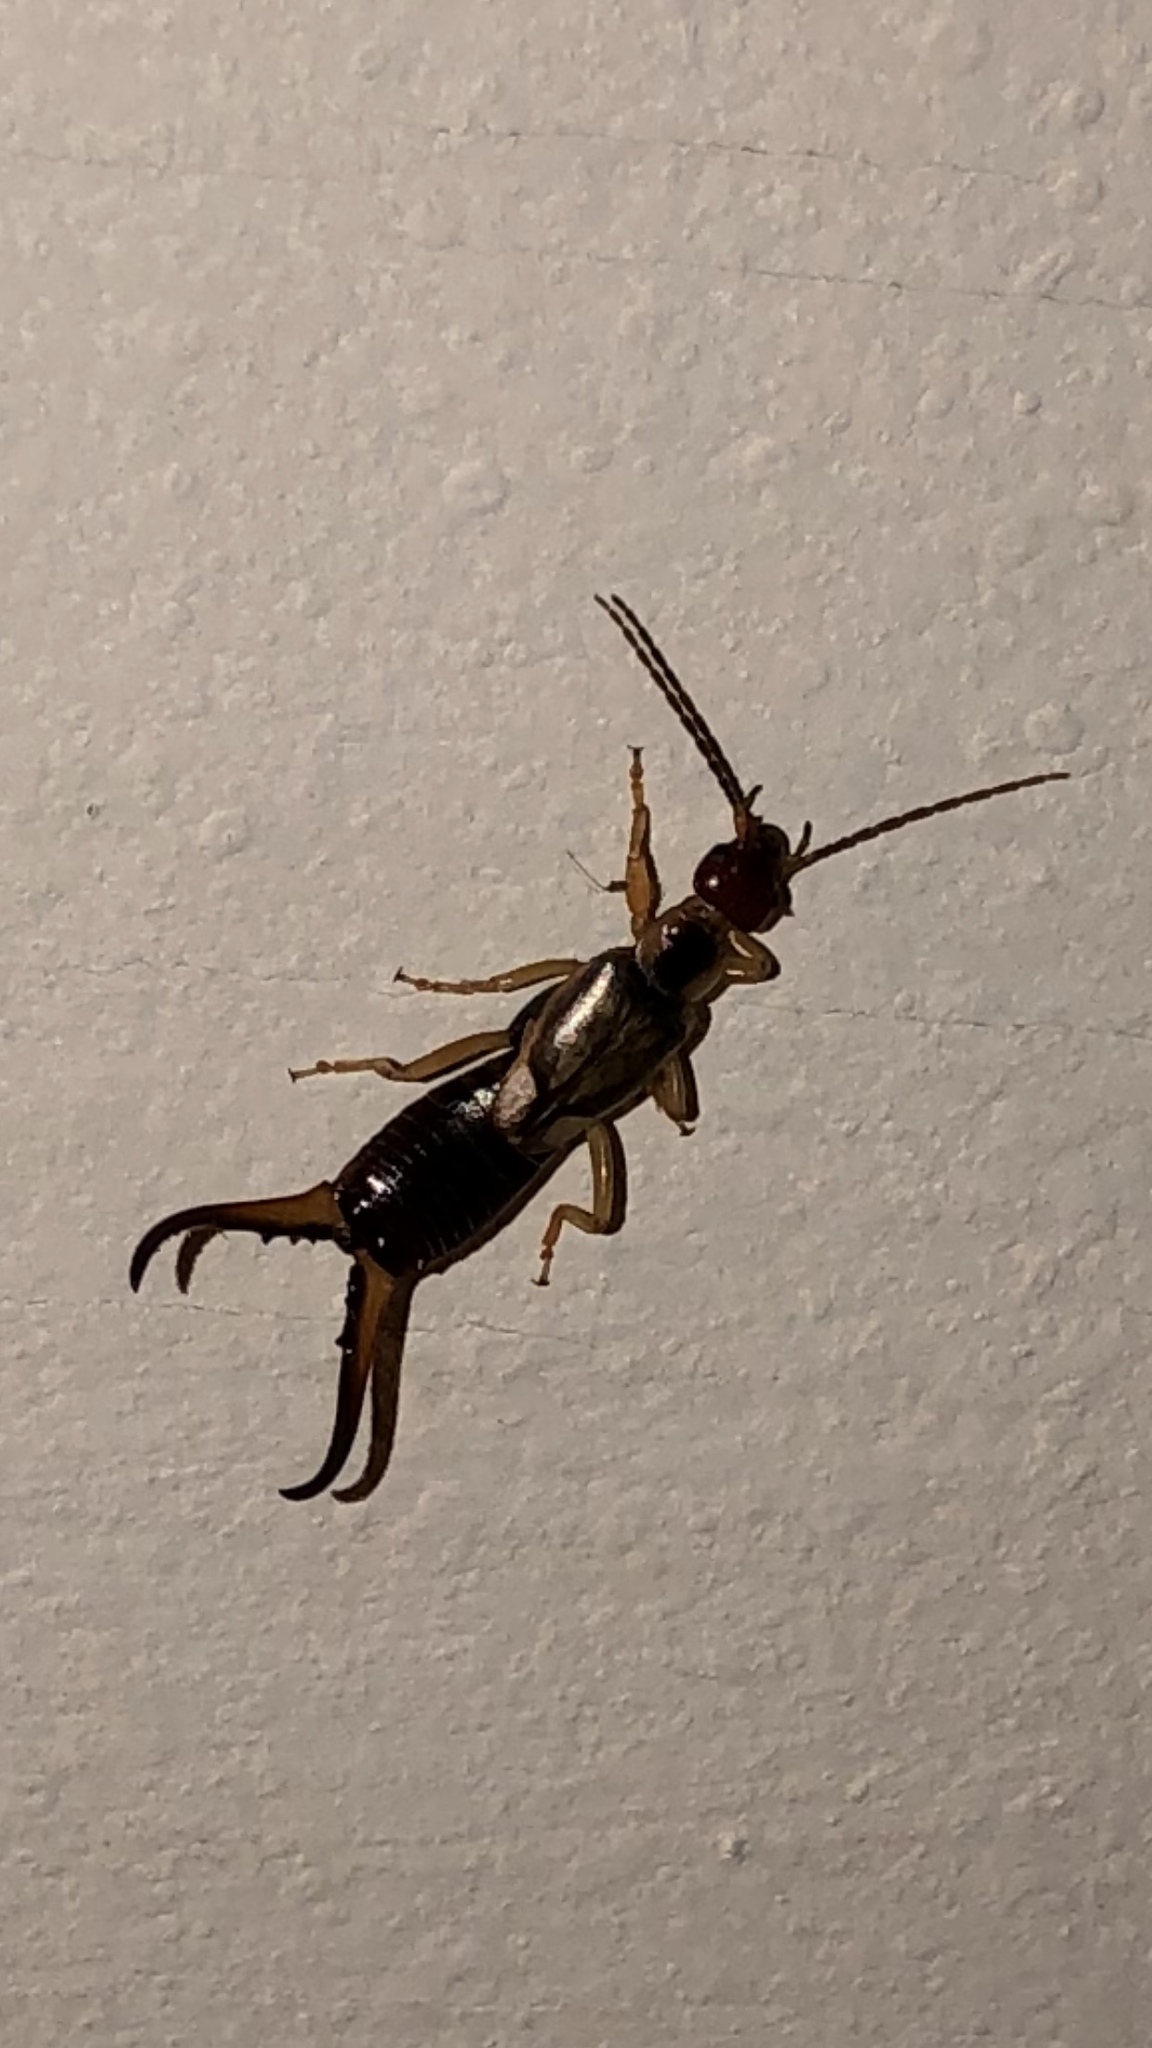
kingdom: Animalia
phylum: Arthropoda
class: Insecta
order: Dermaptera
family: Forficulidae
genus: Forficula
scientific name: Forficula
